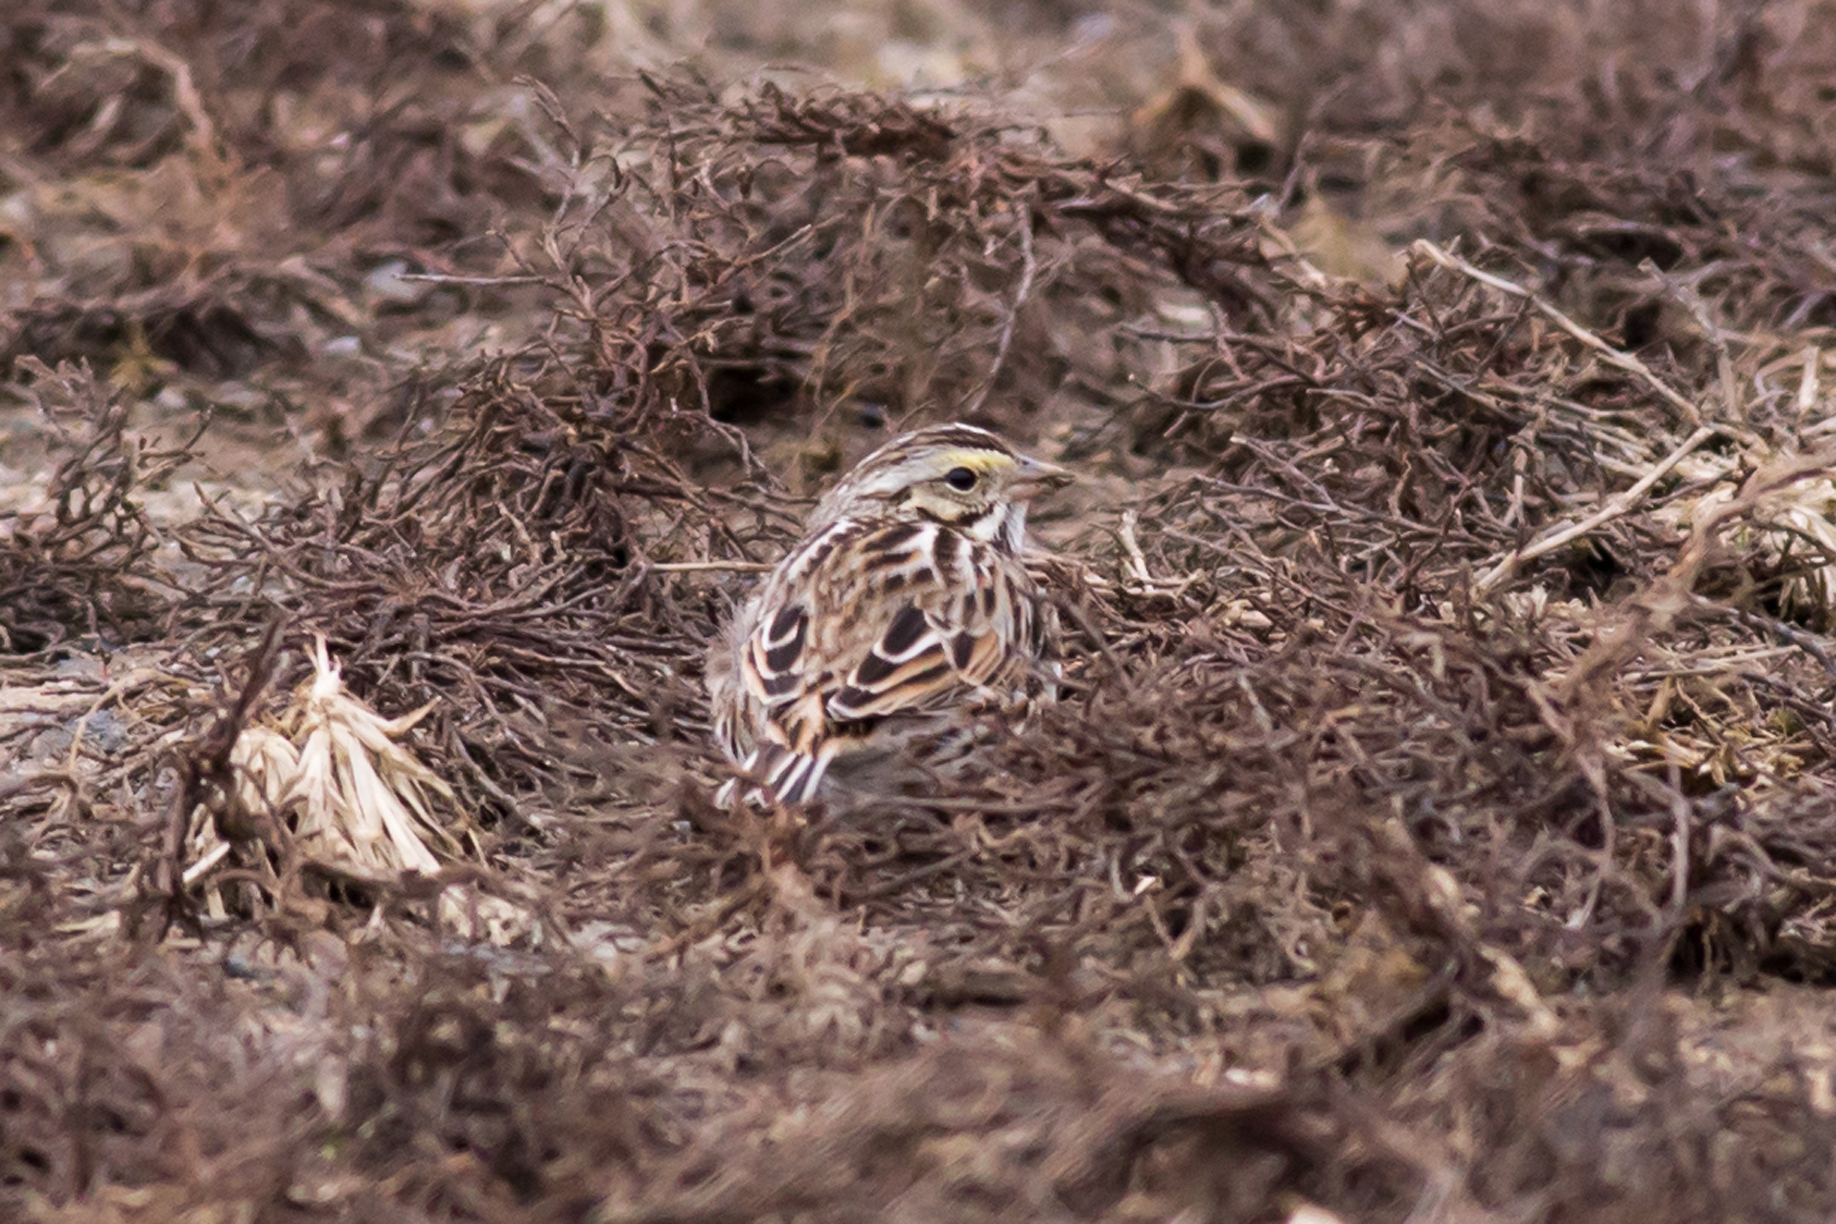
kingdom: Animalia
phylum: Chordata
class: Aves
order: Passeriformes
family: Passerellidae
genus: Passerculus
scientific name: Passerculus sandwichensis
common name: Savannah sparrow
